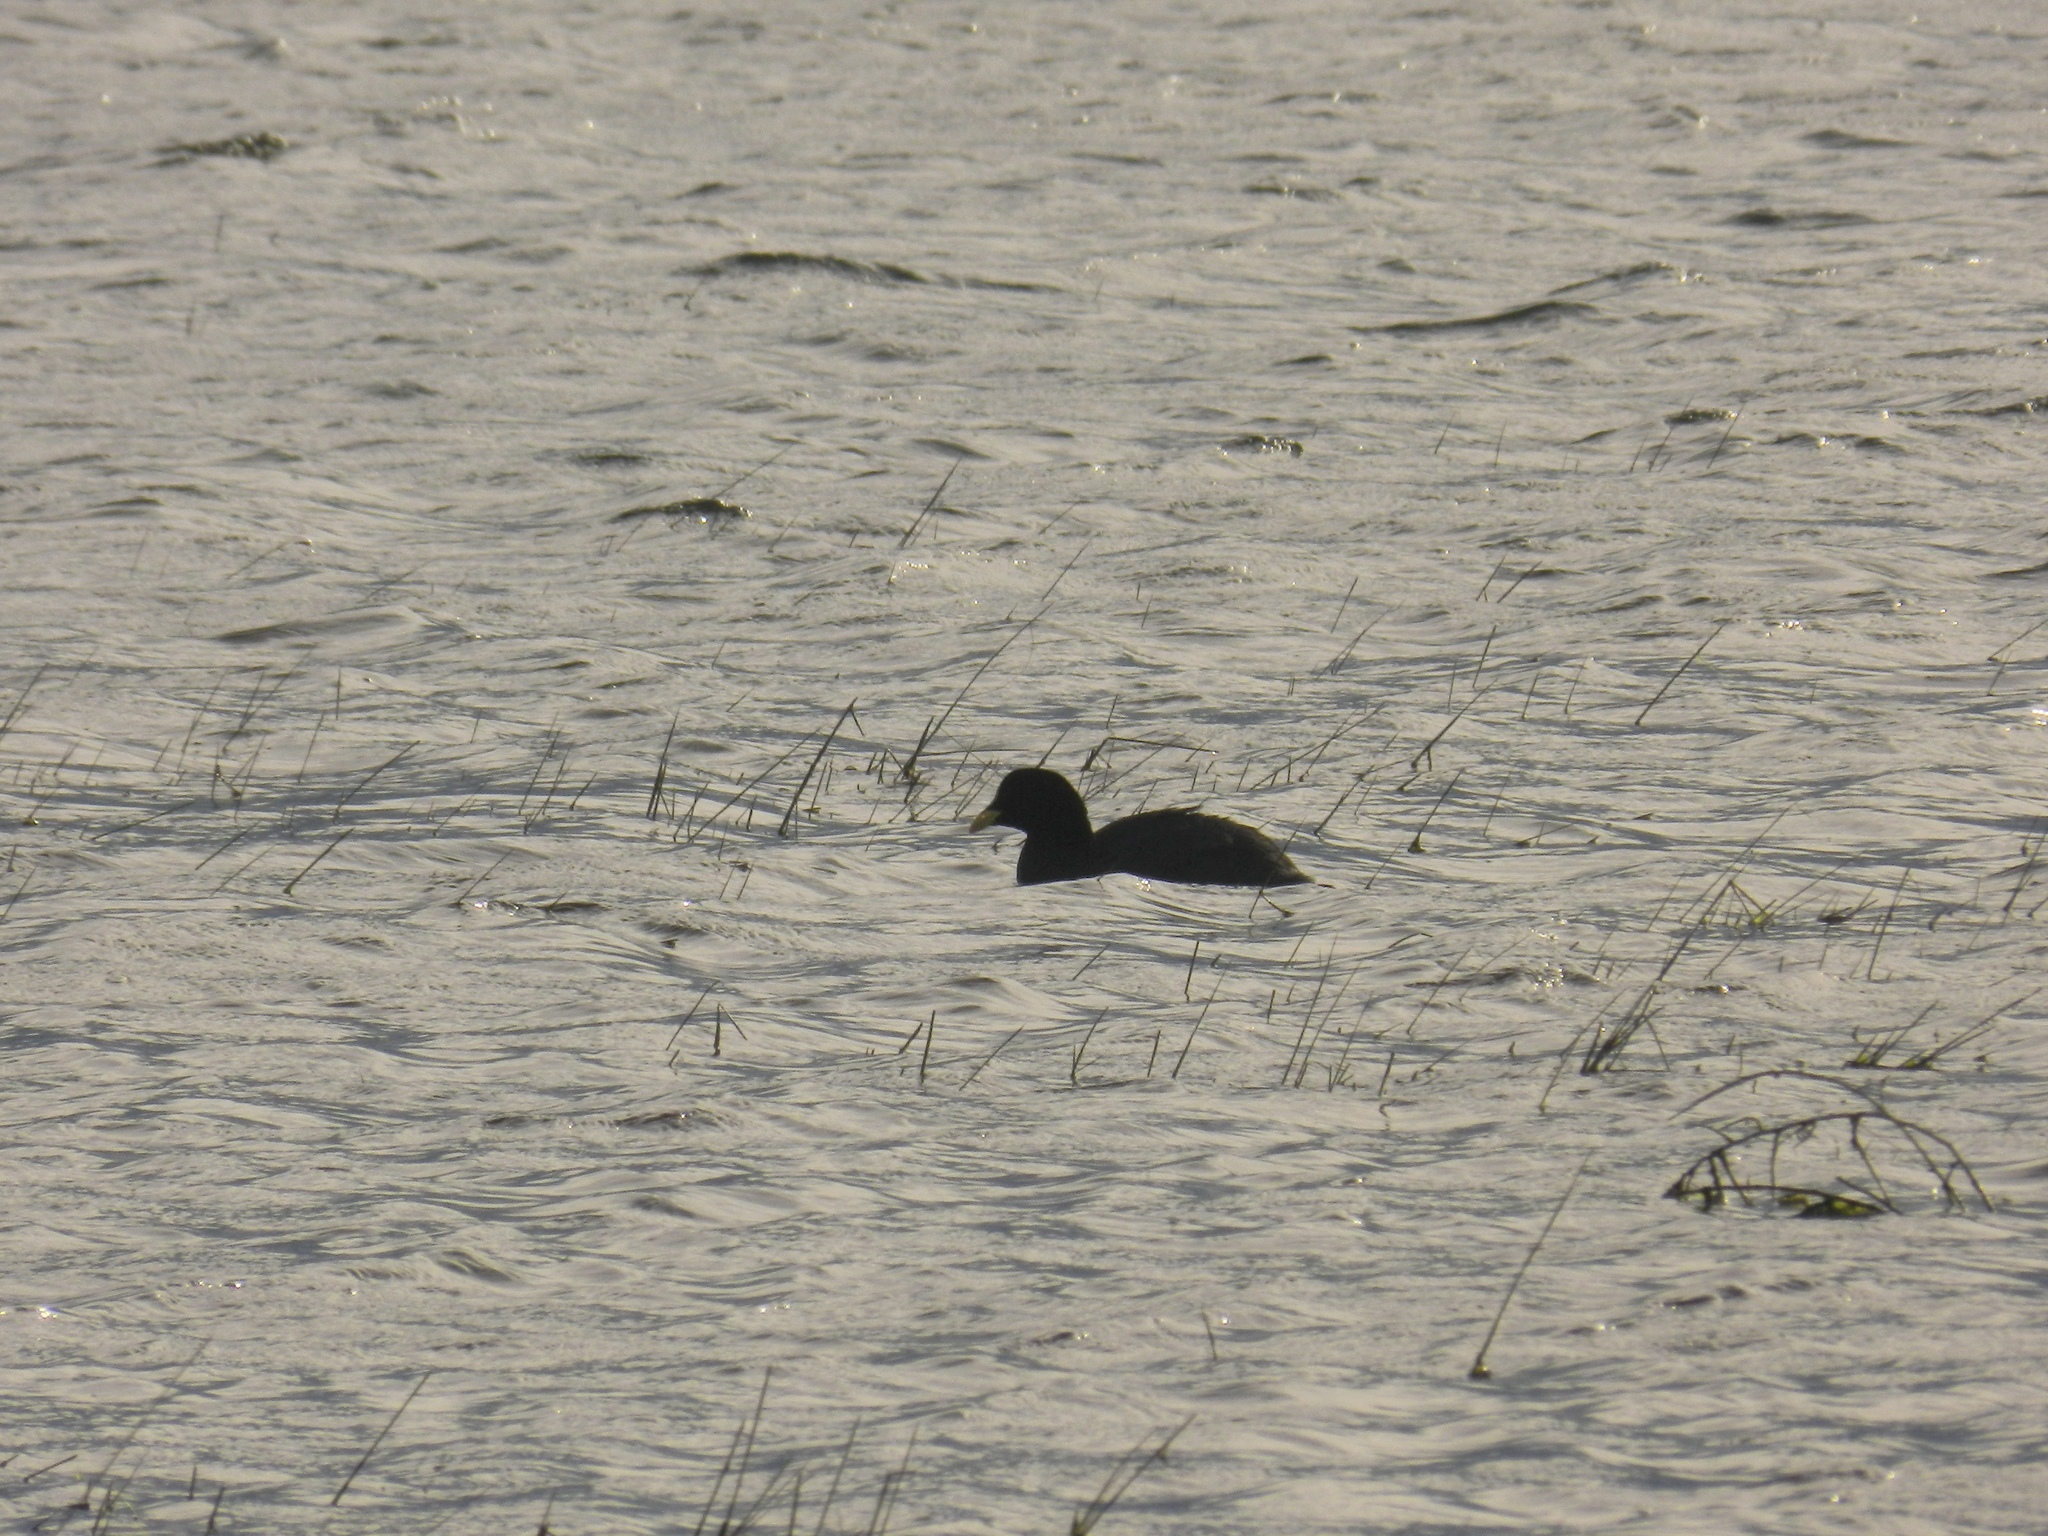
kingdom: Animalia
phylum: Chordata
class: Aves
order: Gruiformes
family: Rallidae
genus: Fulica
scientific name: Fulica armillata
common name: Red-gartered coot
